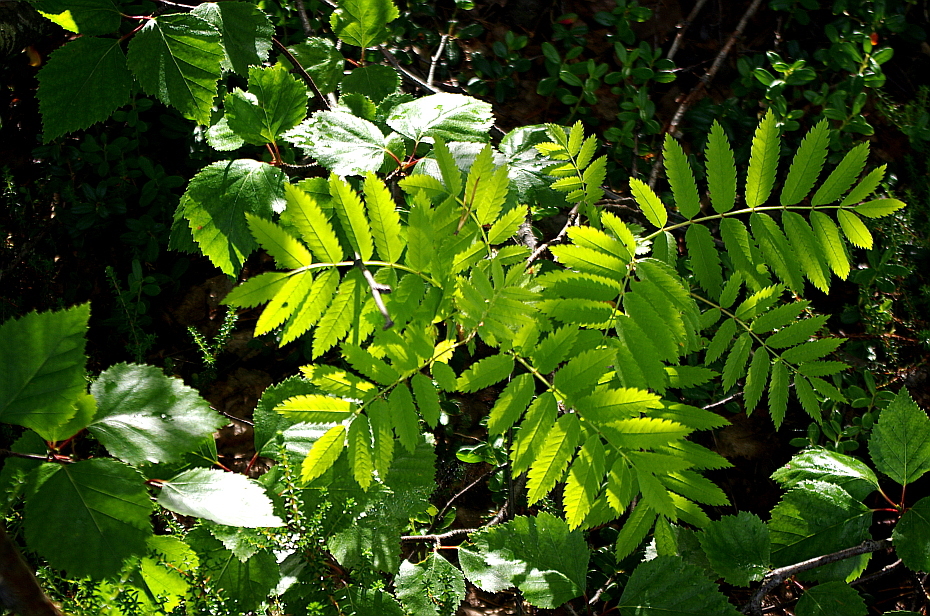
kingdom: Plantae
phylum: Tracheophyta
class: Magnoliopsida
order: Rosales
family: Rosaceae
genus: Sorbus
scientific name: Sorbus aucuparia
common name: Rowan
